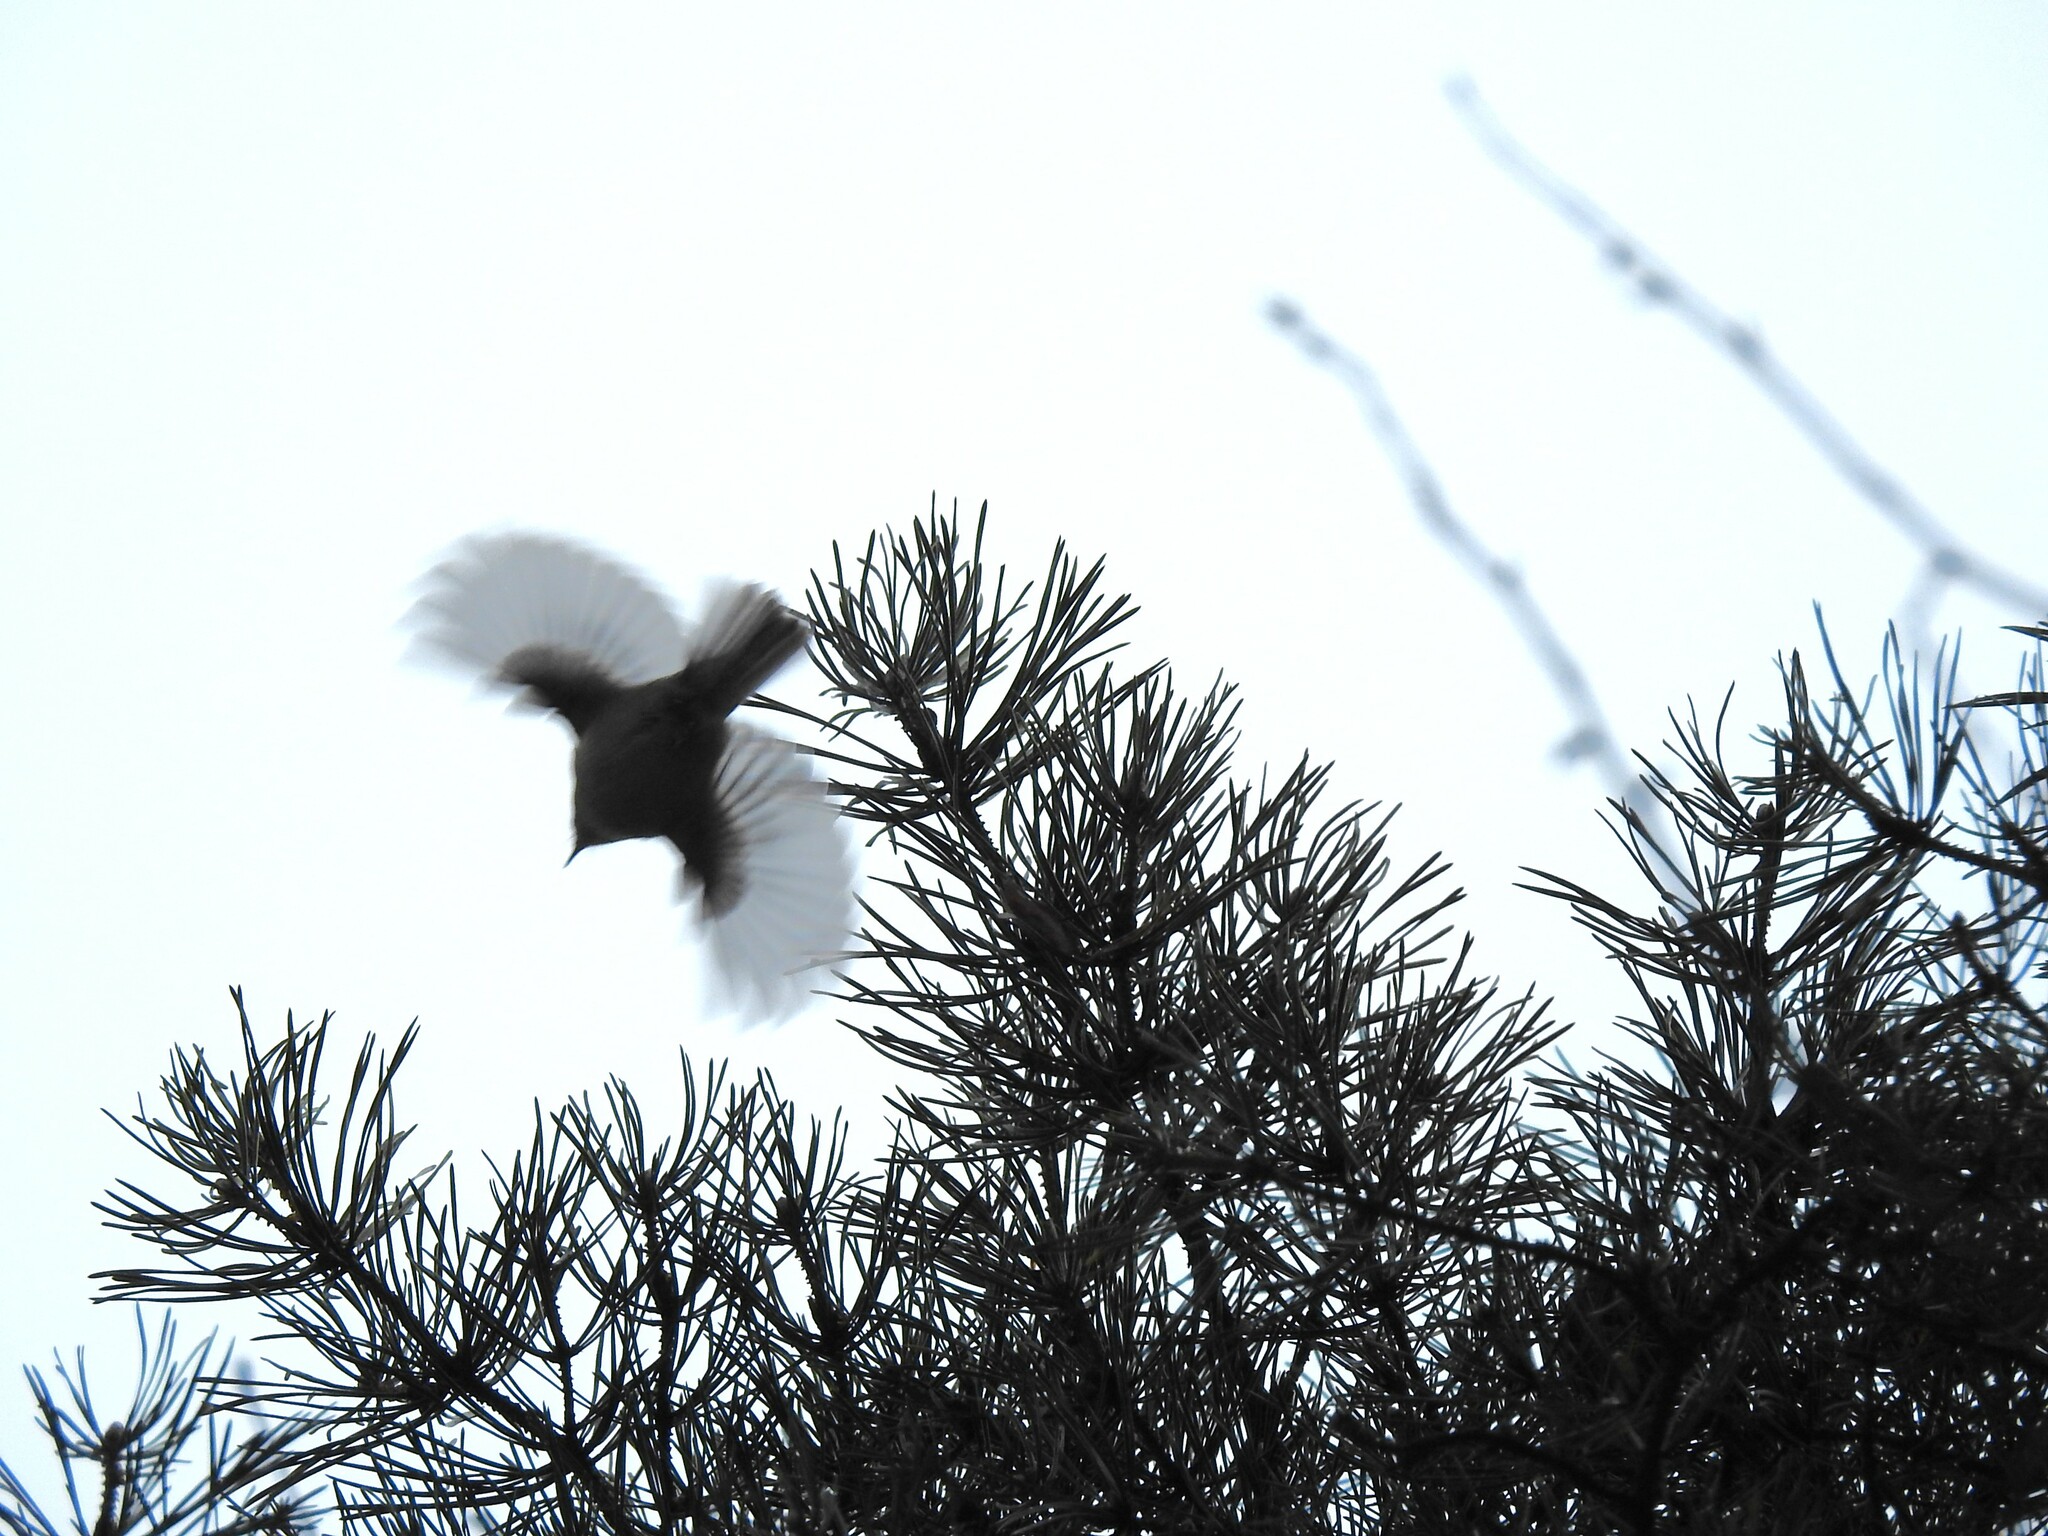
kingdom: Animalia
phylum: Chordata
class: Aves
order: Passeriformes
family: Regulidae
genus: Regulus
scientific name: Regulus regulus
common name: Goldcrest
